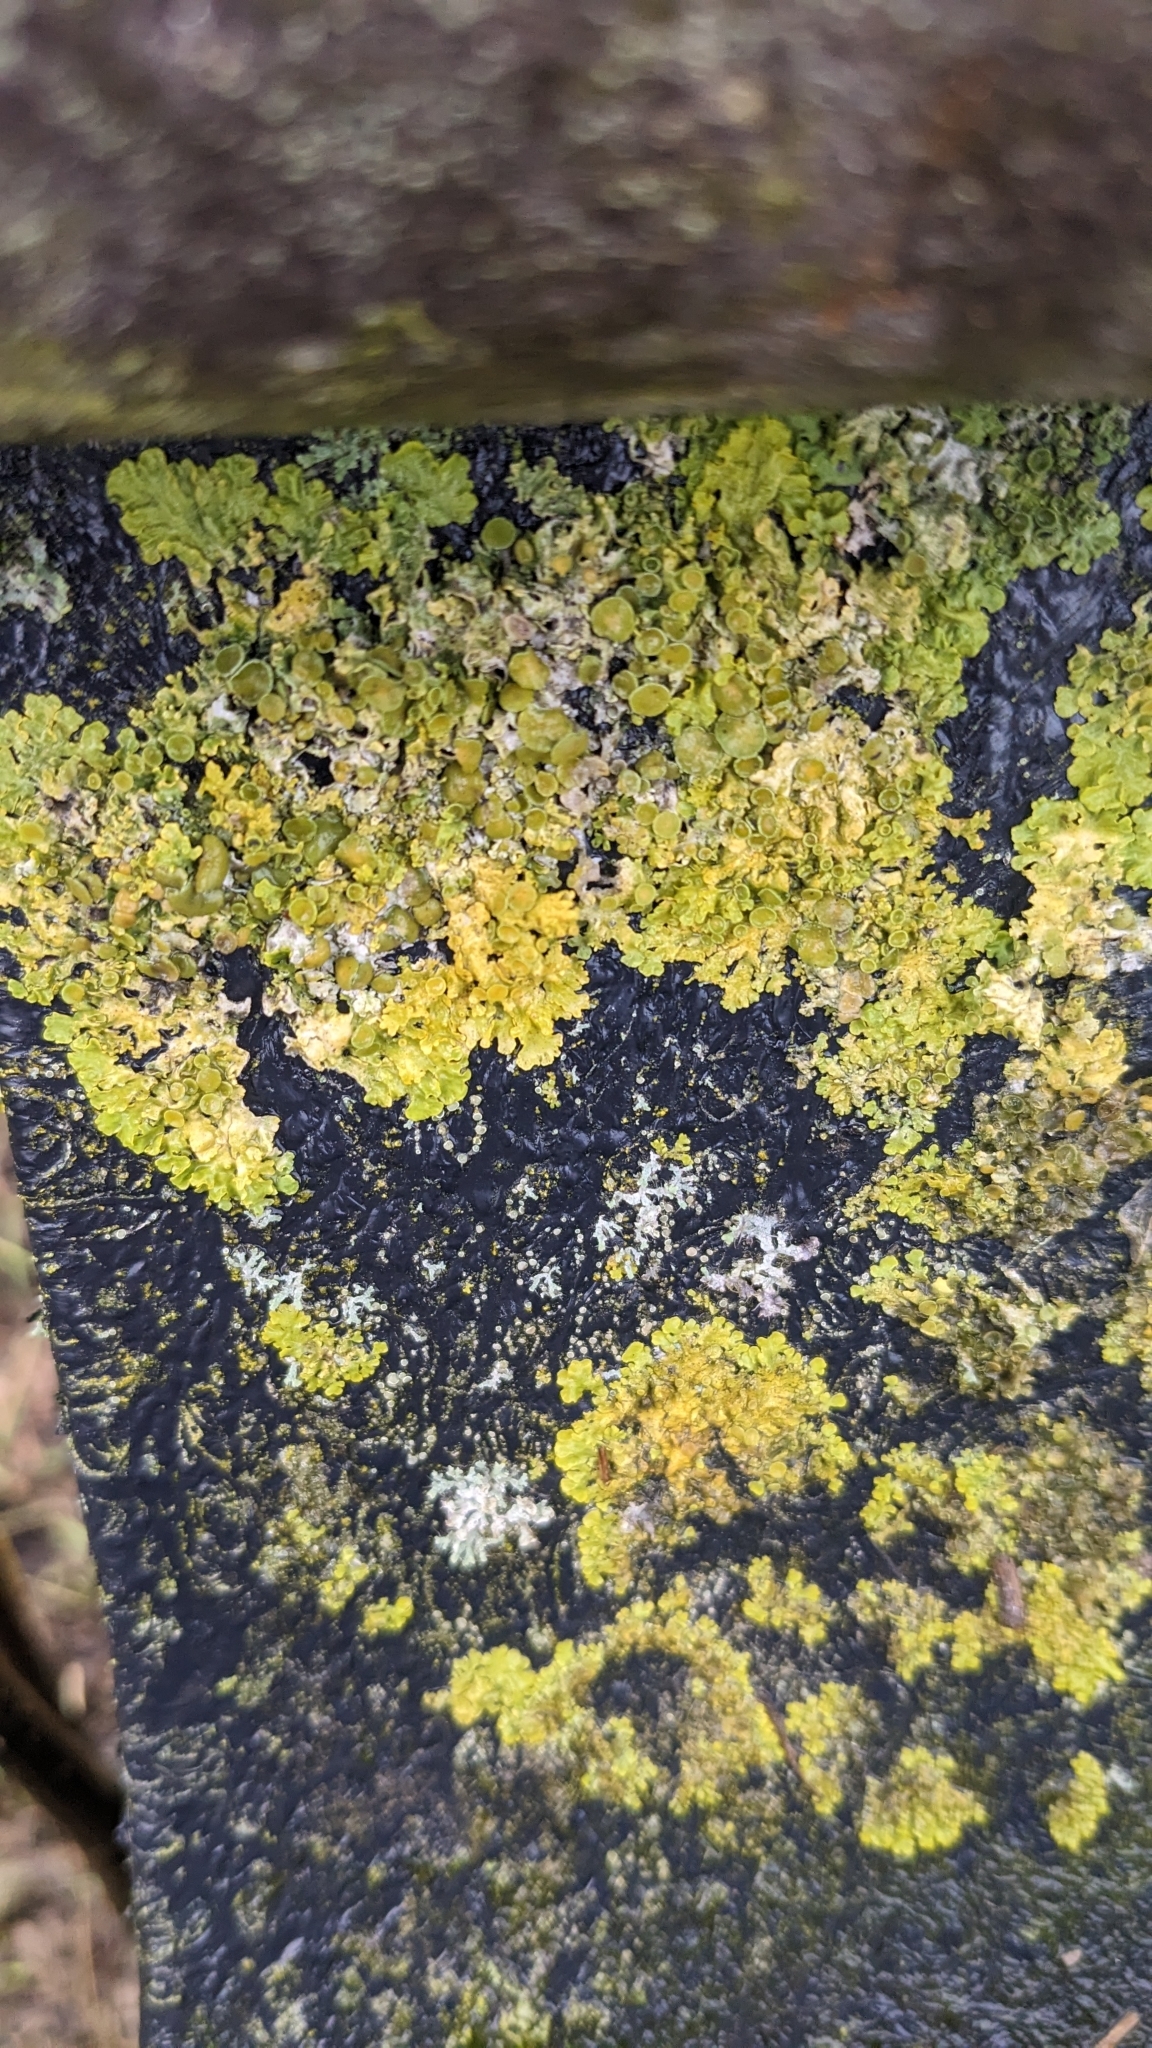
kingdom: Fungi
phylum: Ascomycota
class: Lecanoromycetes
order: Teloschistales
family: Teloschistaceae
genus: Xanthoria
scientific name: Xanthoria parietina
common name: Common orange lichen
